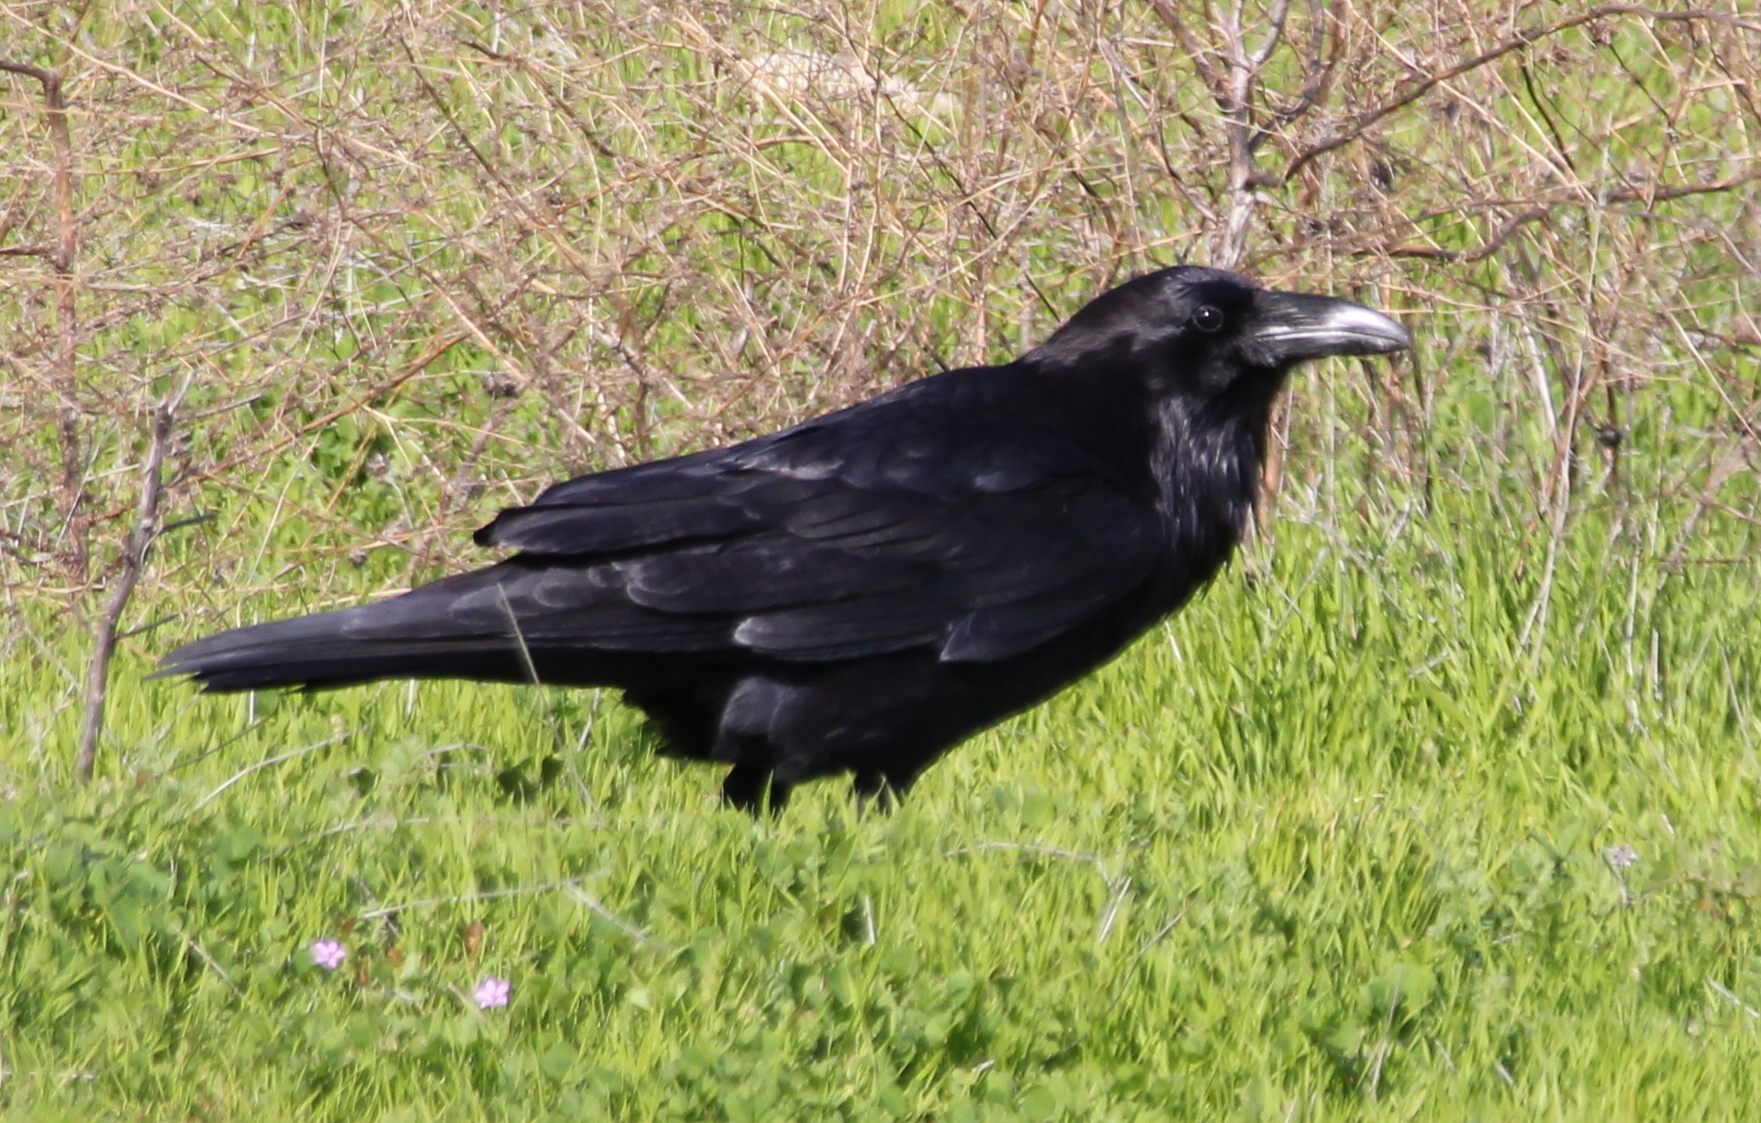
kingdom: Animalia
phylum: Chordata
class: Aves
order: Passeriformes
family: Corvidae
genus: Corvus
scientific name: Corvus corax
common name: Common raven
